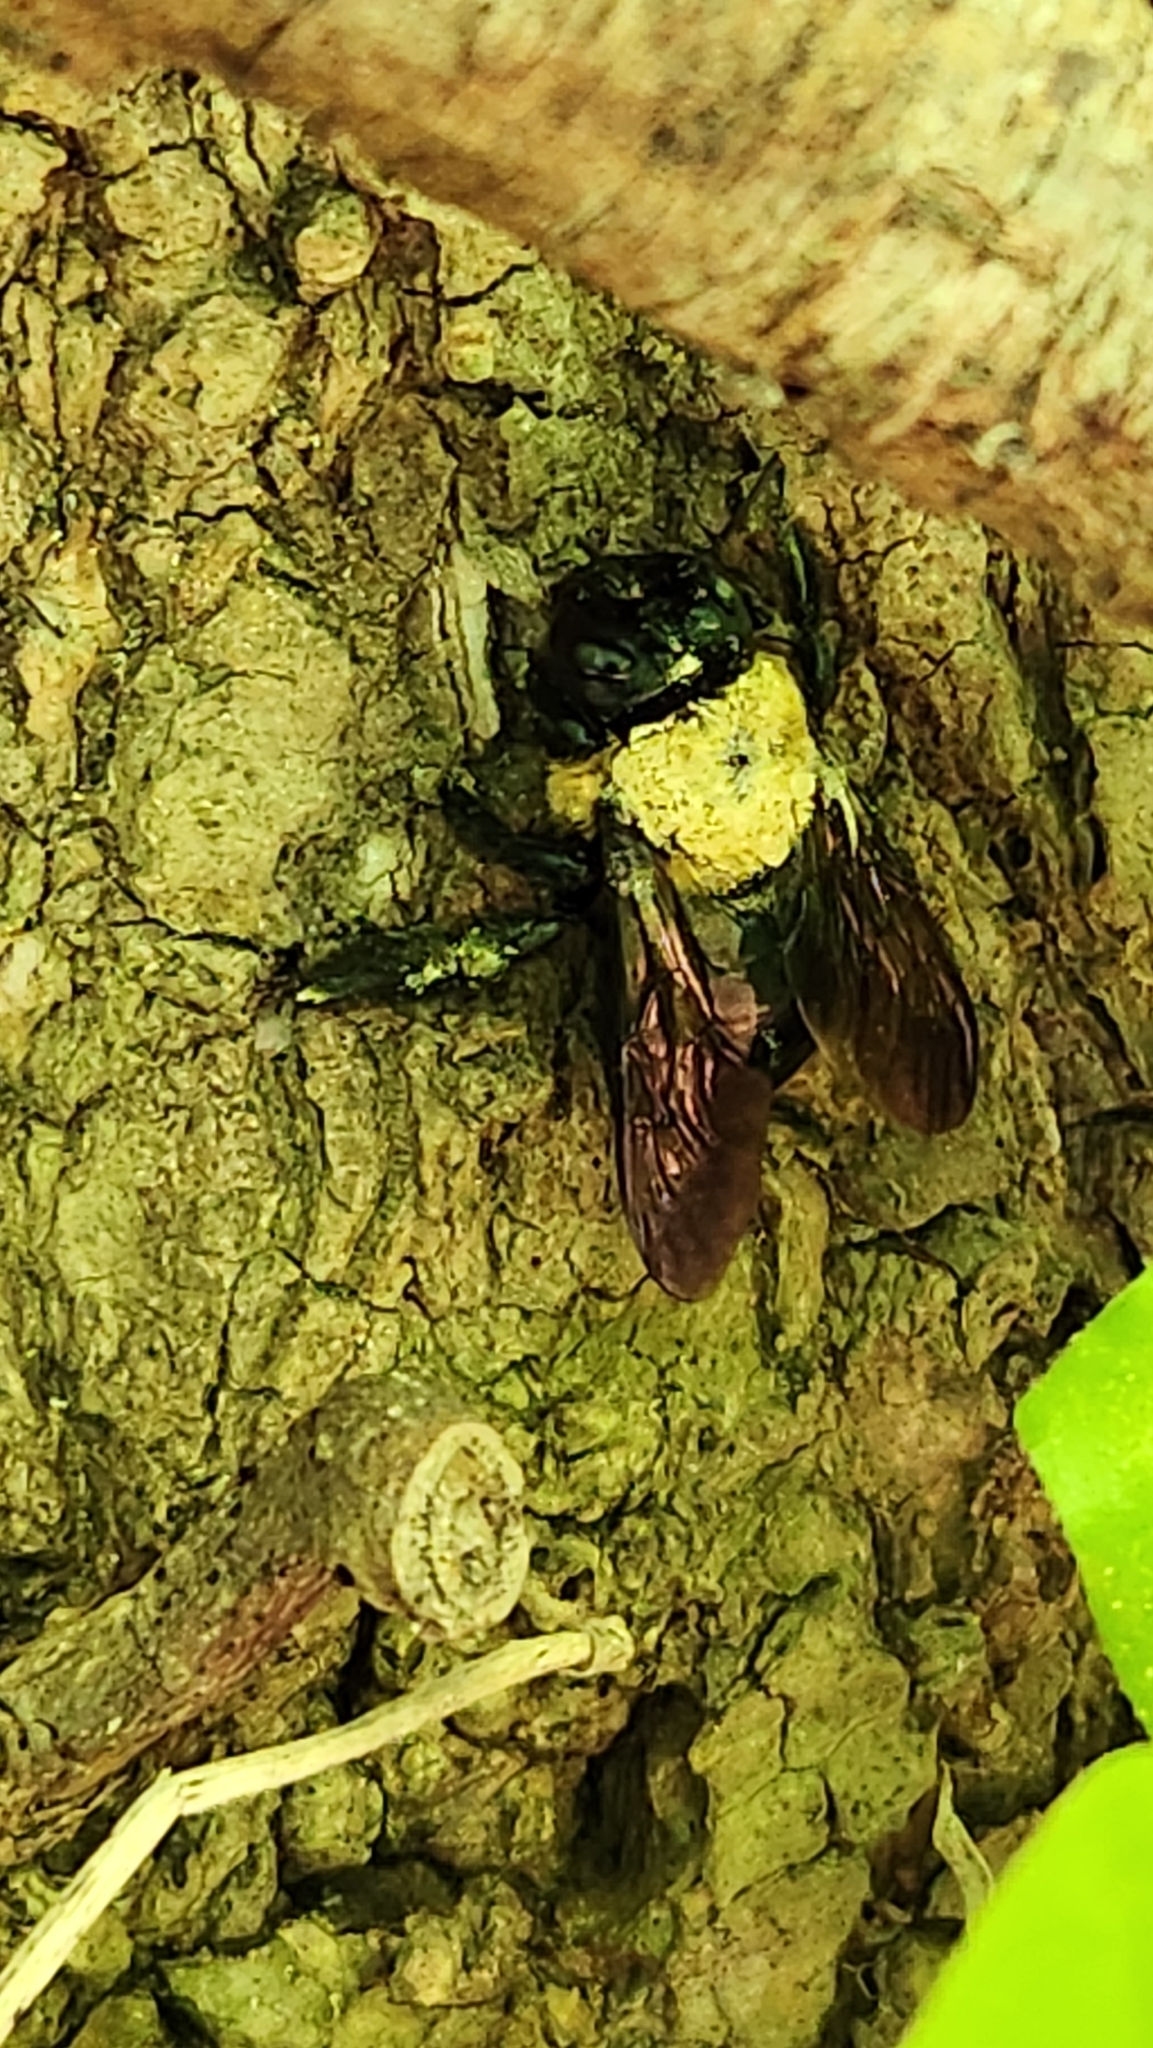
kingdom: Animalia
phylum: Arthropoda
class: Insecta
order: Hymenoptera
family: Apidae
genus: Xylocopa
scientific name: Xylocopa virginica
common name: Carpenter bee
